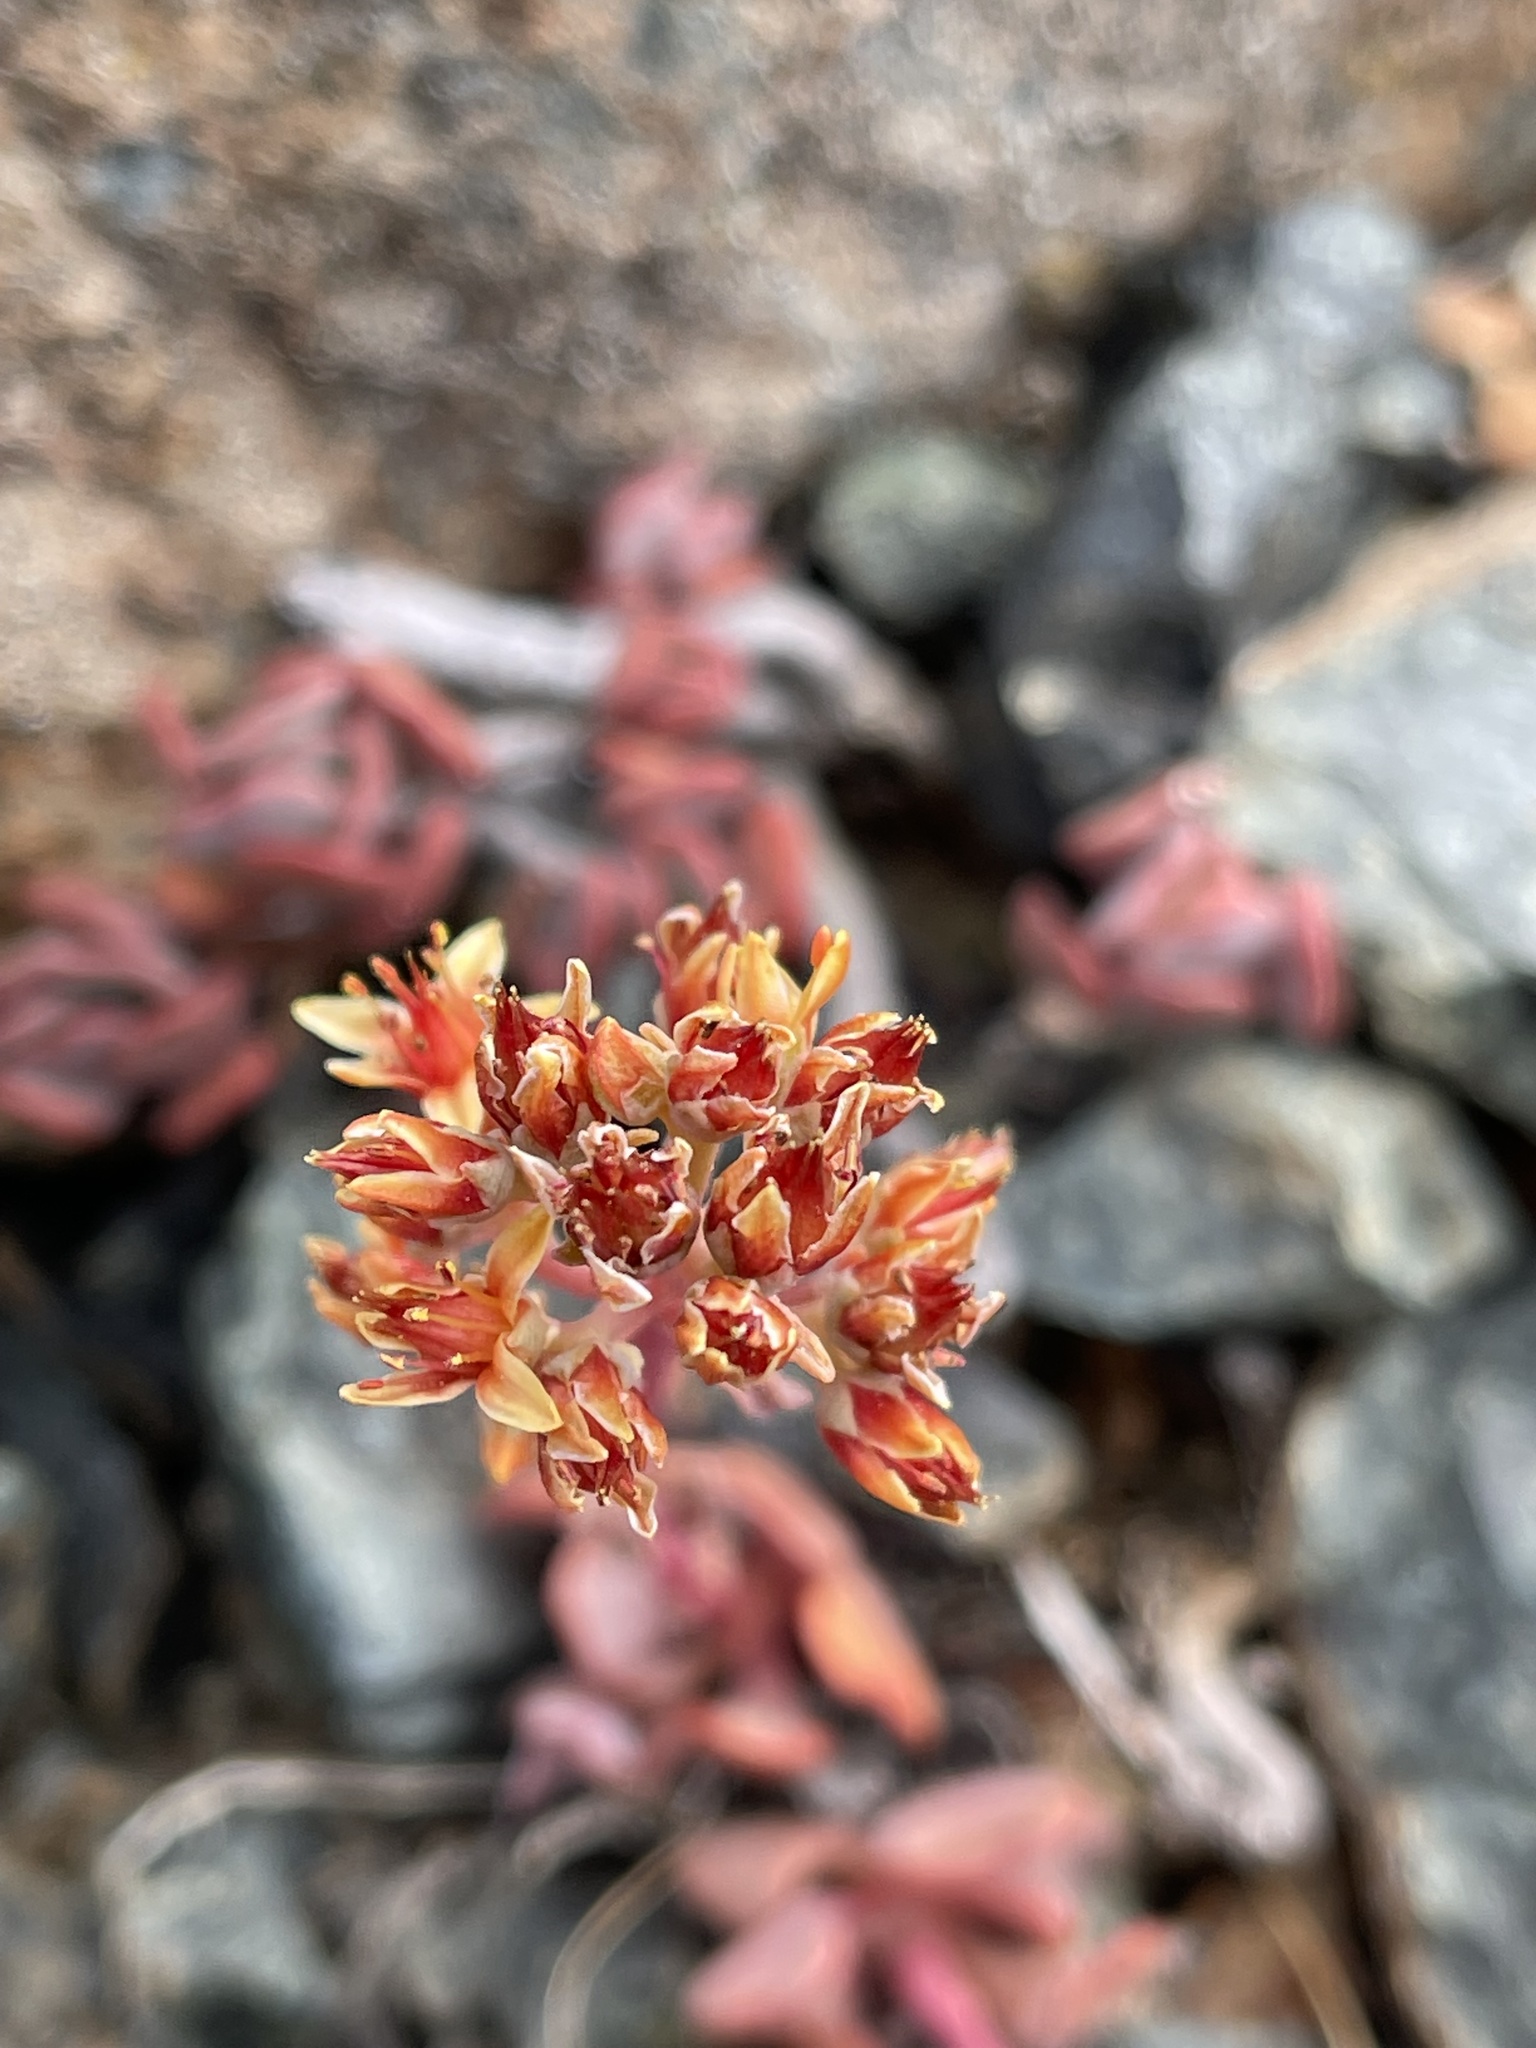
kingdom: Plantae
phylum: Tracheophyta
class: Magnoliopsida
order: Saxifragales
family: Crassulaceae
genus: Sedum
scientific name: Sedum obtusatum
